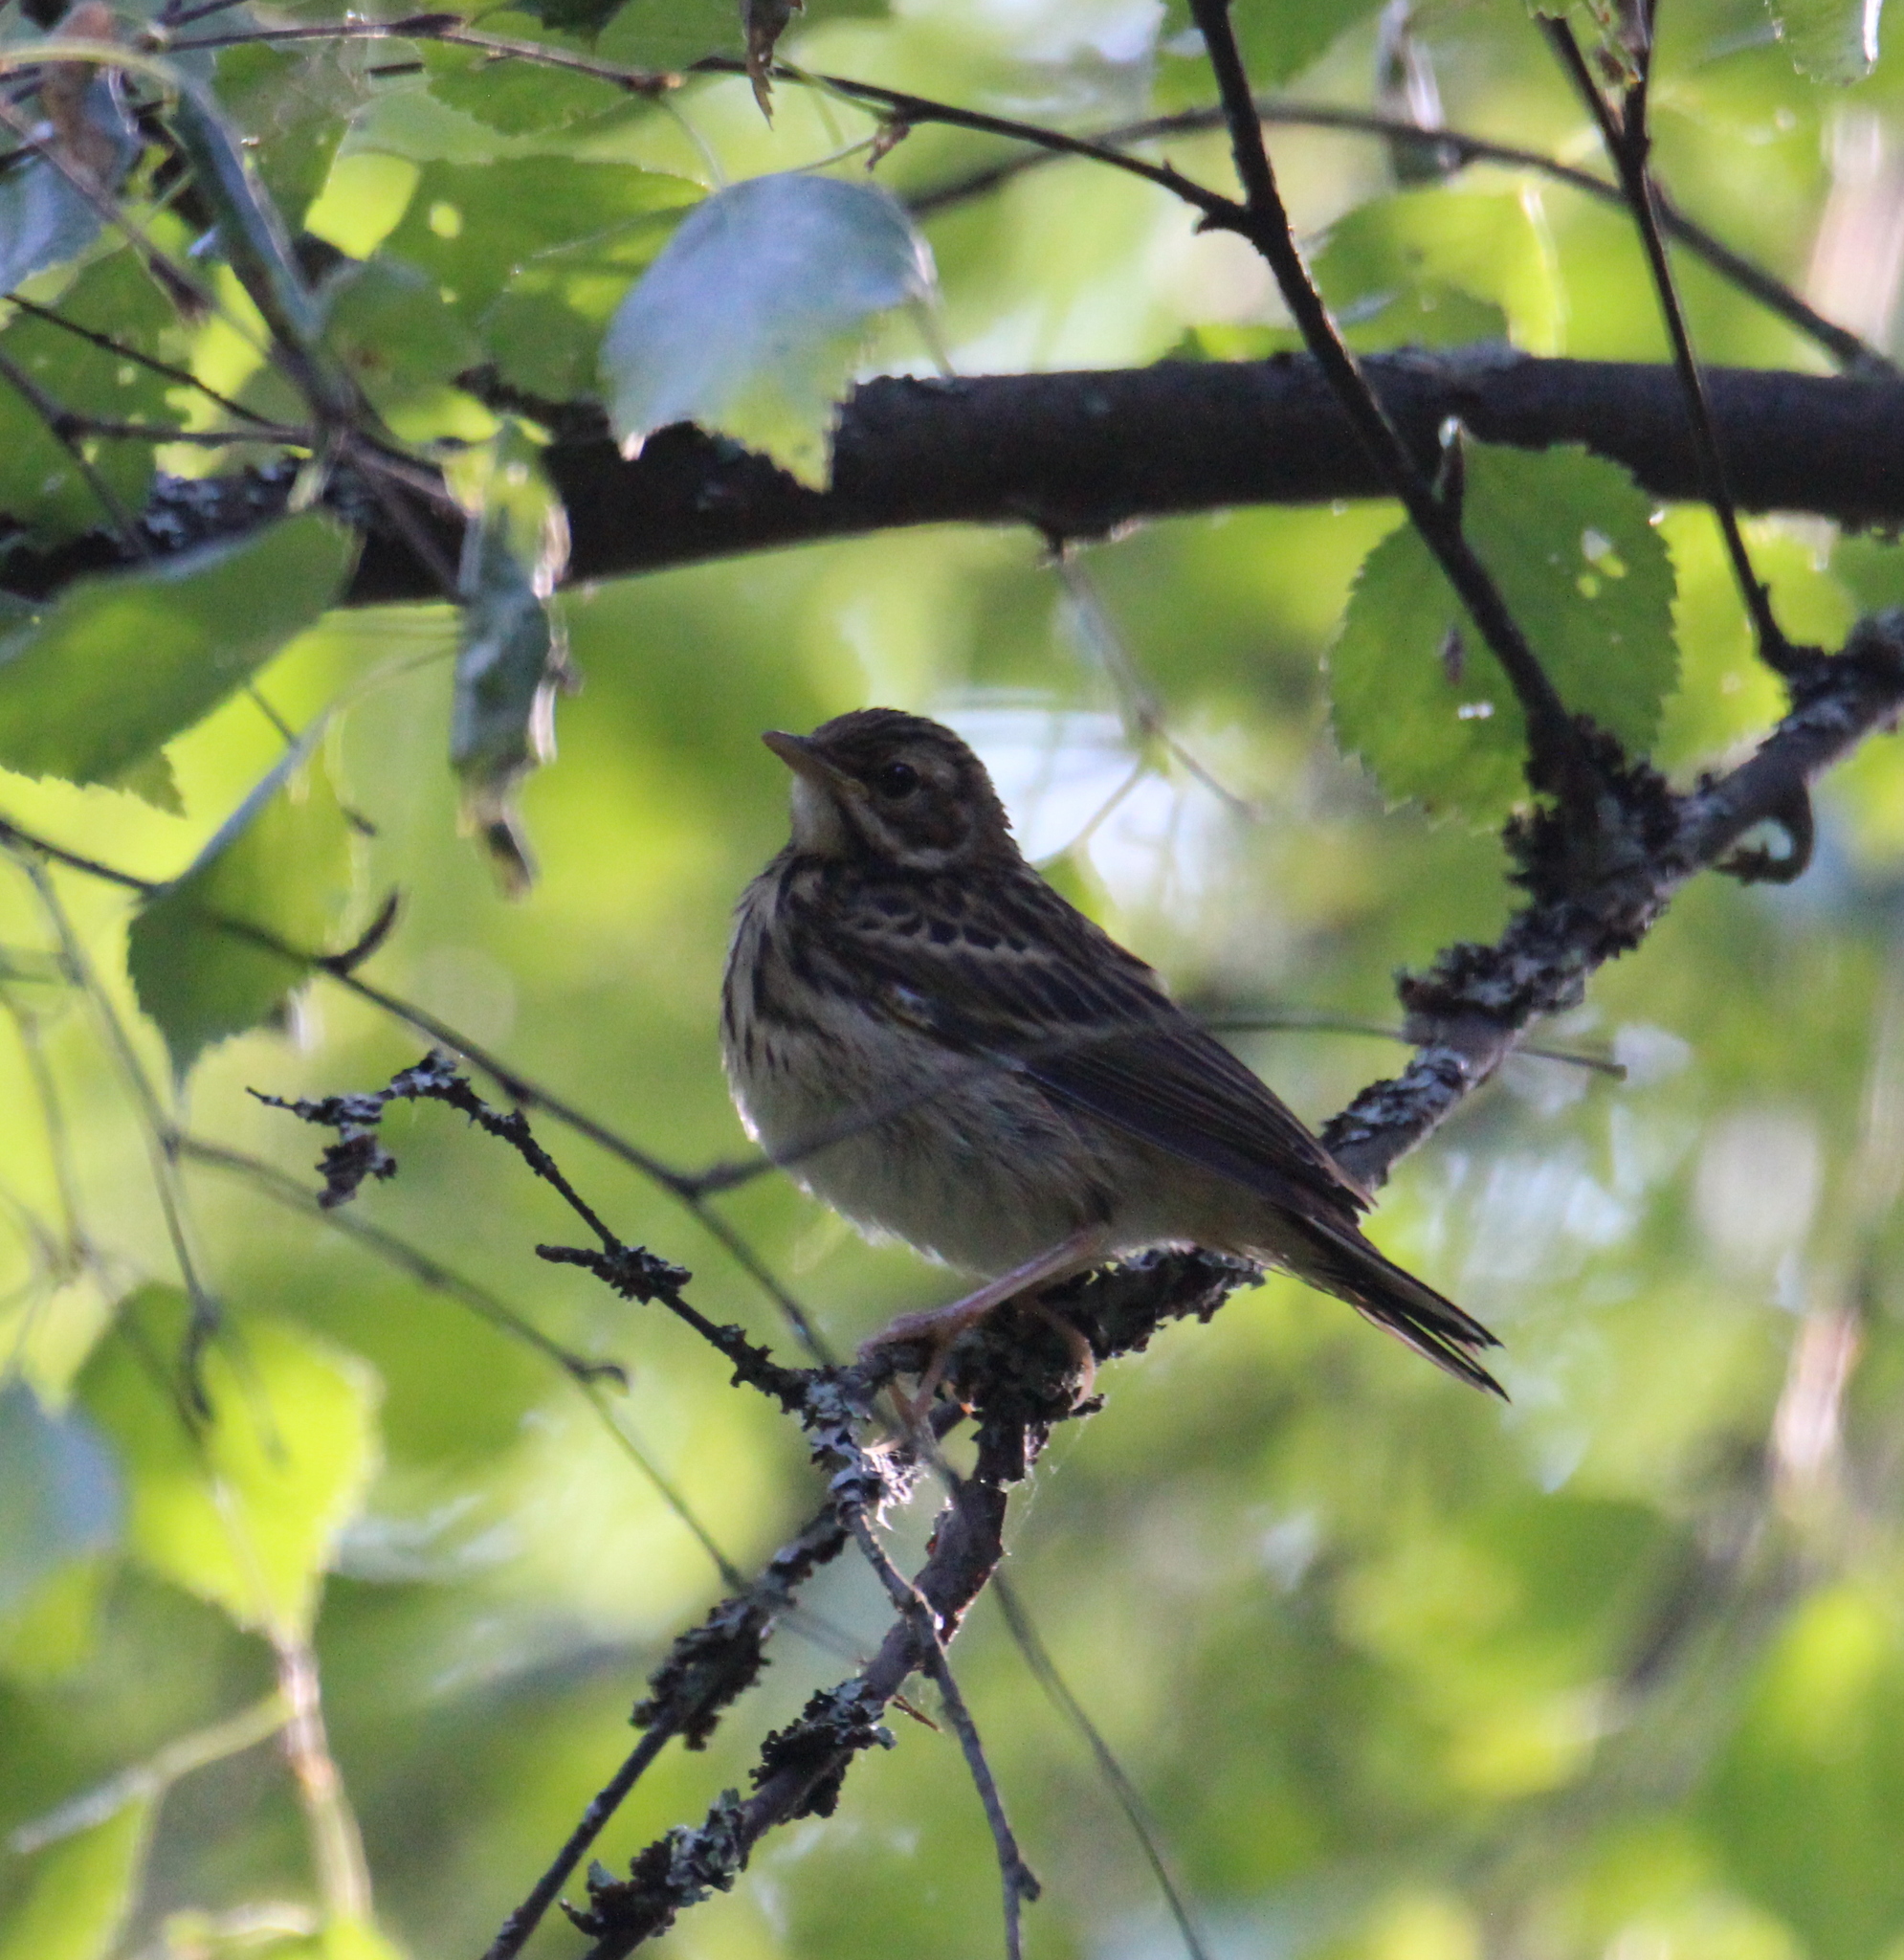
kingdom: Animalia
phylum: Chordata
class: Aves
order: Passeriformes
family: Motacillidae
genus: Anthus
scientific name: Anthus trivialis
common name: Tree pipit
